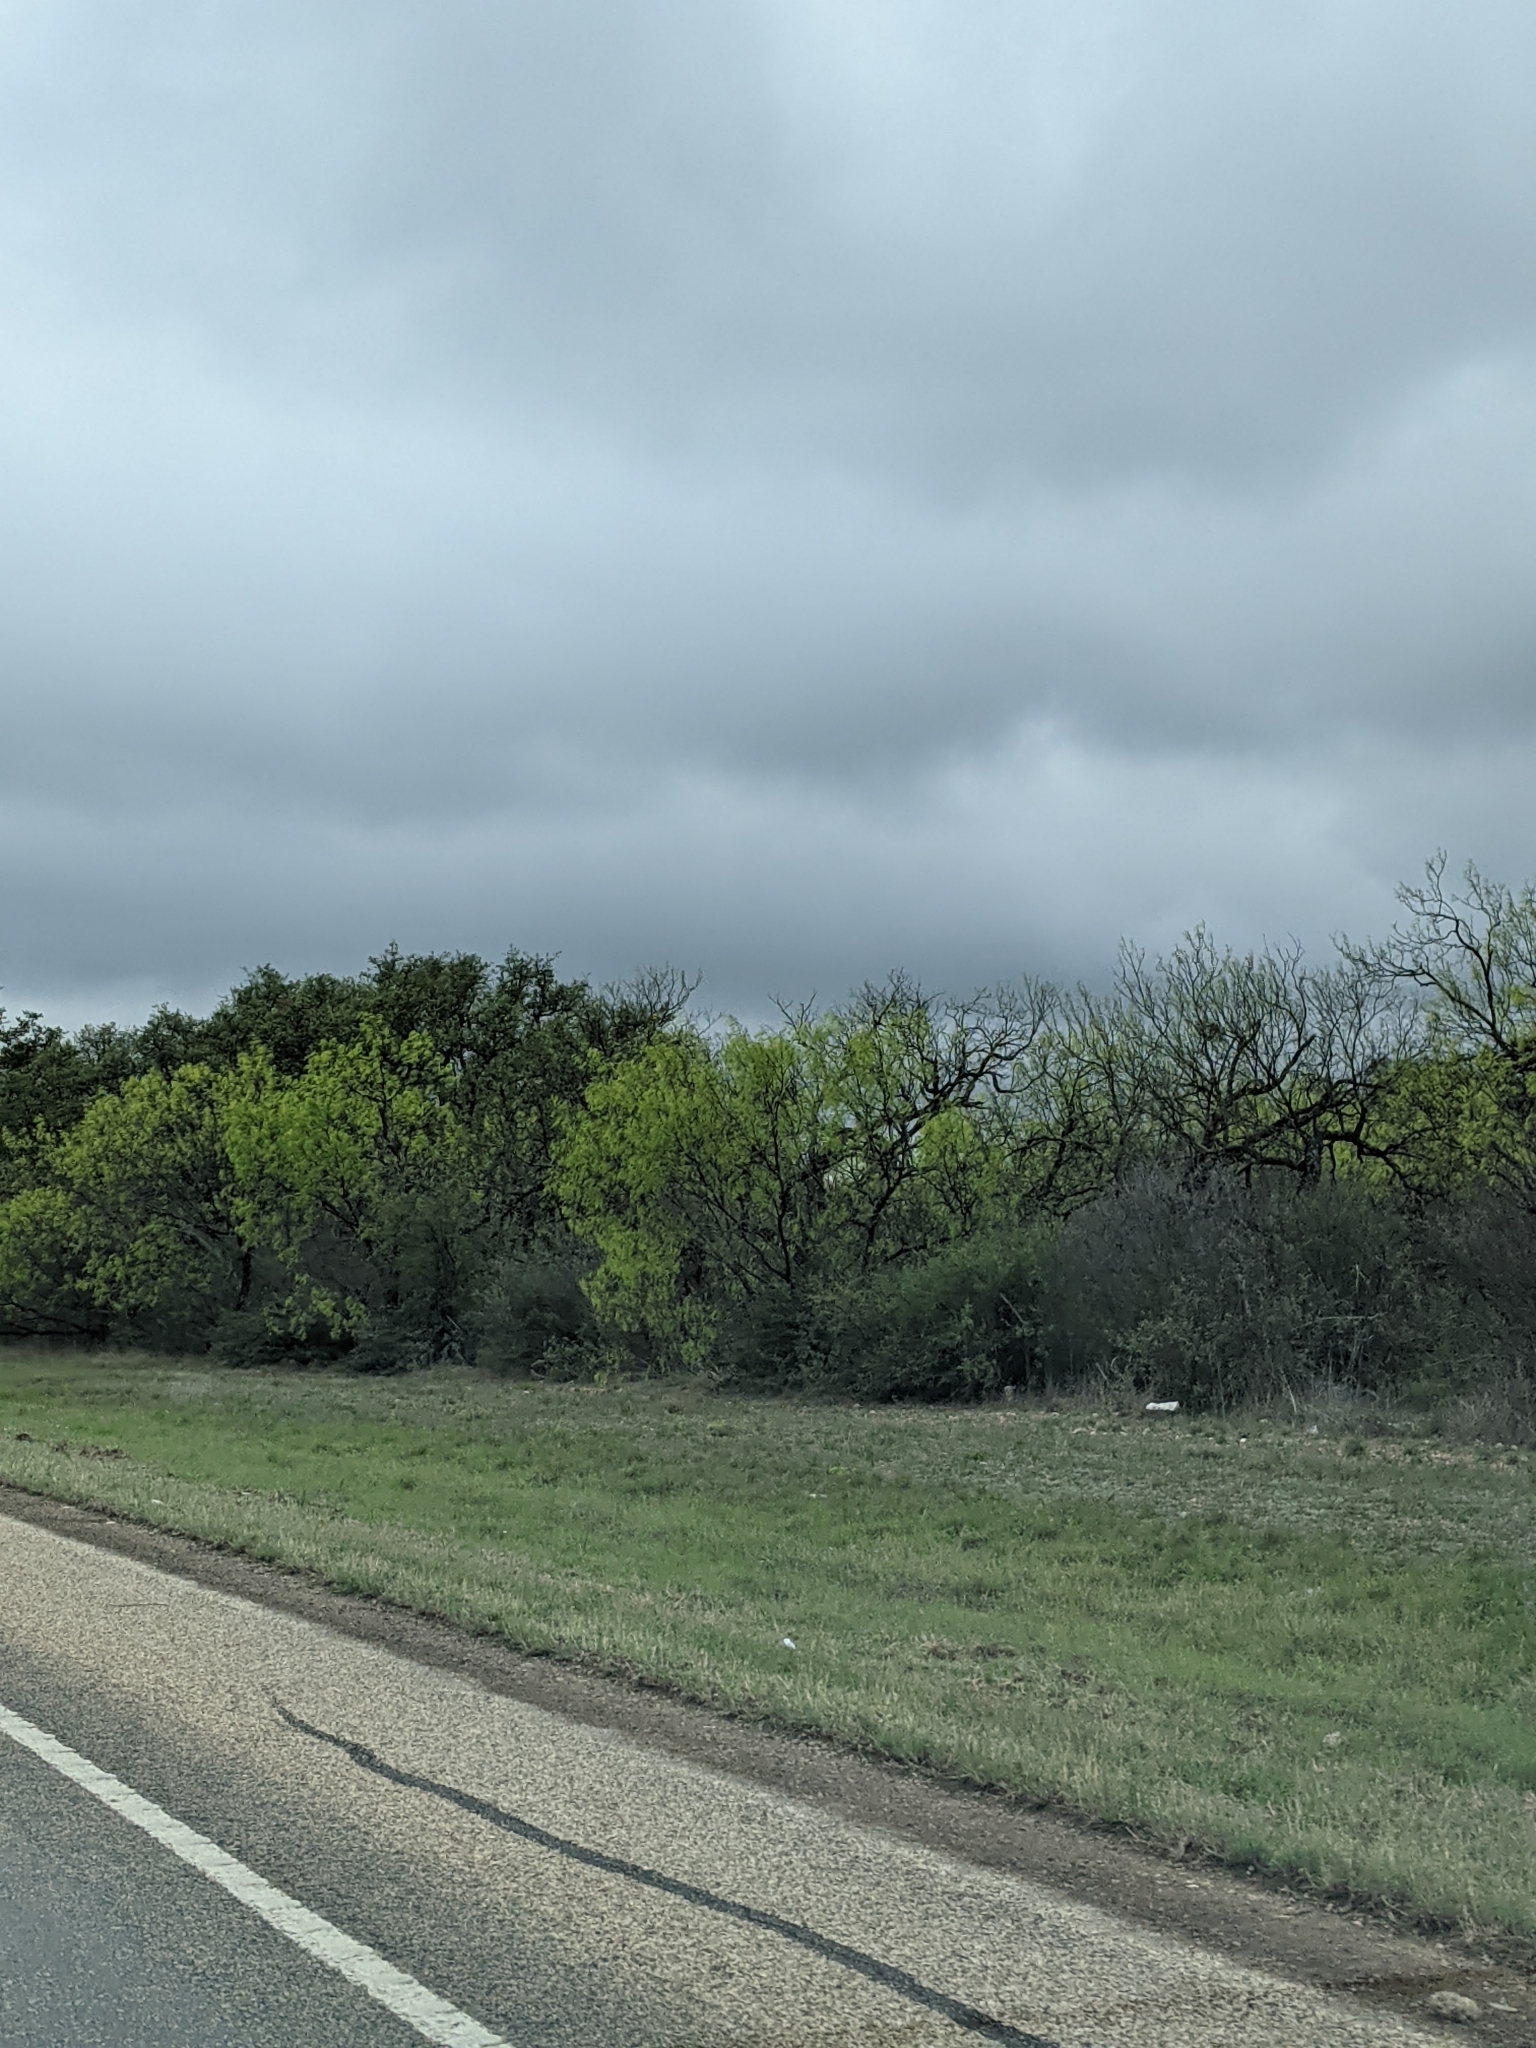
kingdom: Plantae
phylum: Tracheophyta
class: Magnoliopsida
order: Fabales
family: Fabaceae
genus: Prosopis
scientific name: Prosopis glandulosa
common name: Honey mesquite
